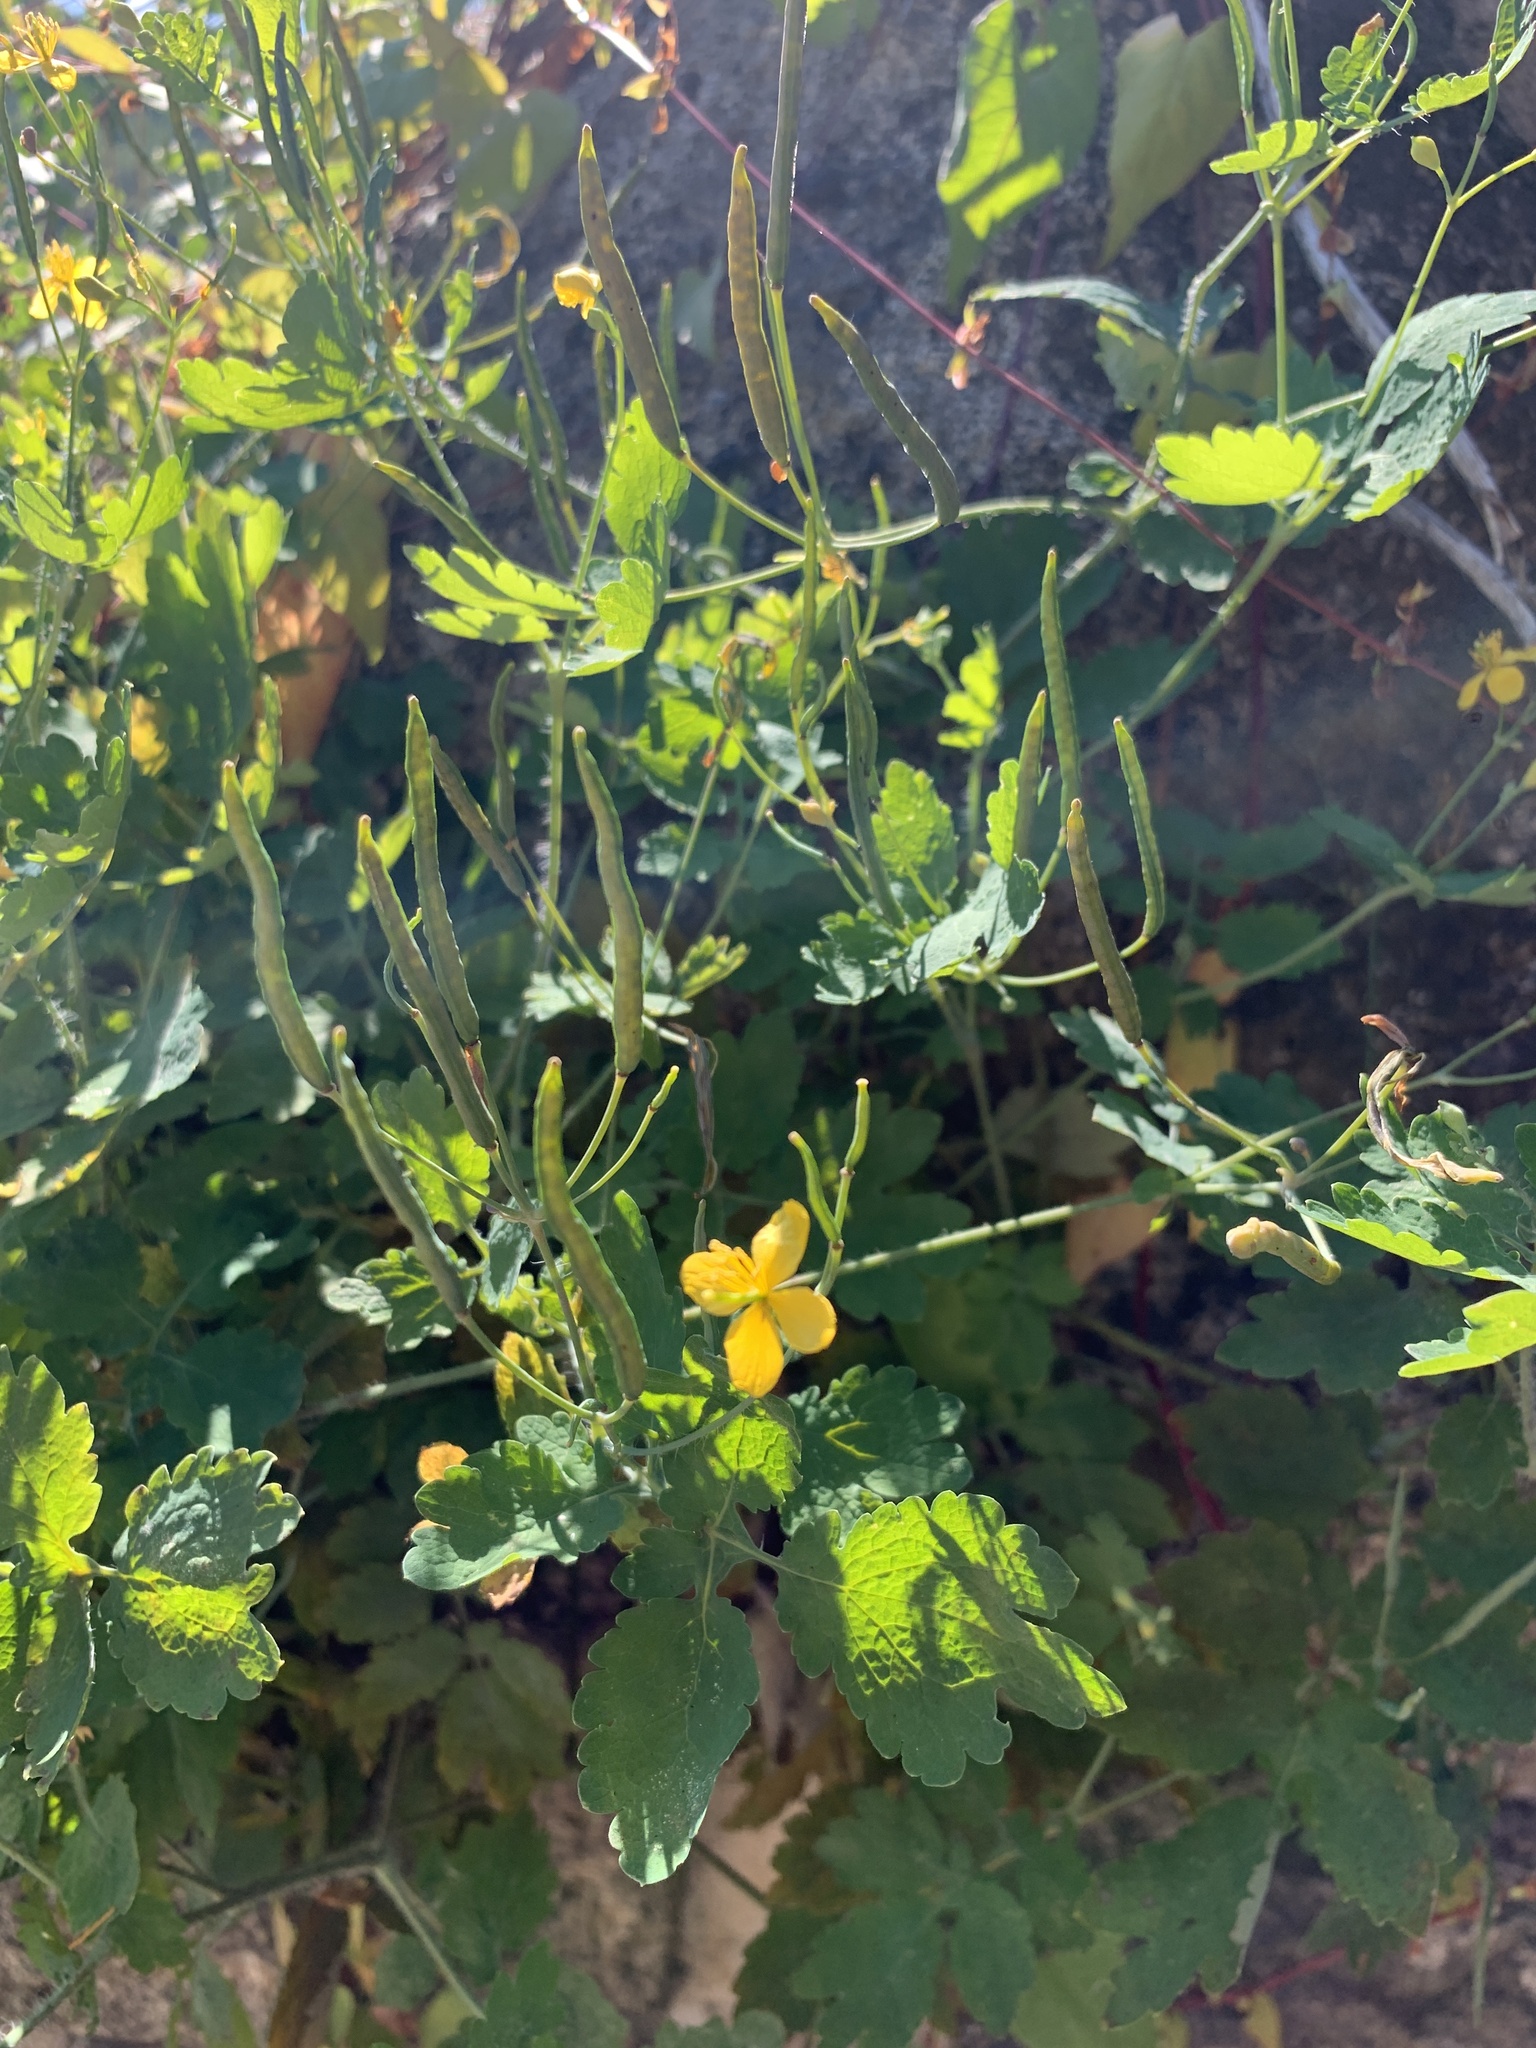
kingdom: Plantae
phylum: Tracheophyta
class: Magnoliopsida
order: Ranunculales
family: Papaveraceae
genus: Chelidonium
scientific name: Chelidonium majus
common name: Greater celandine
